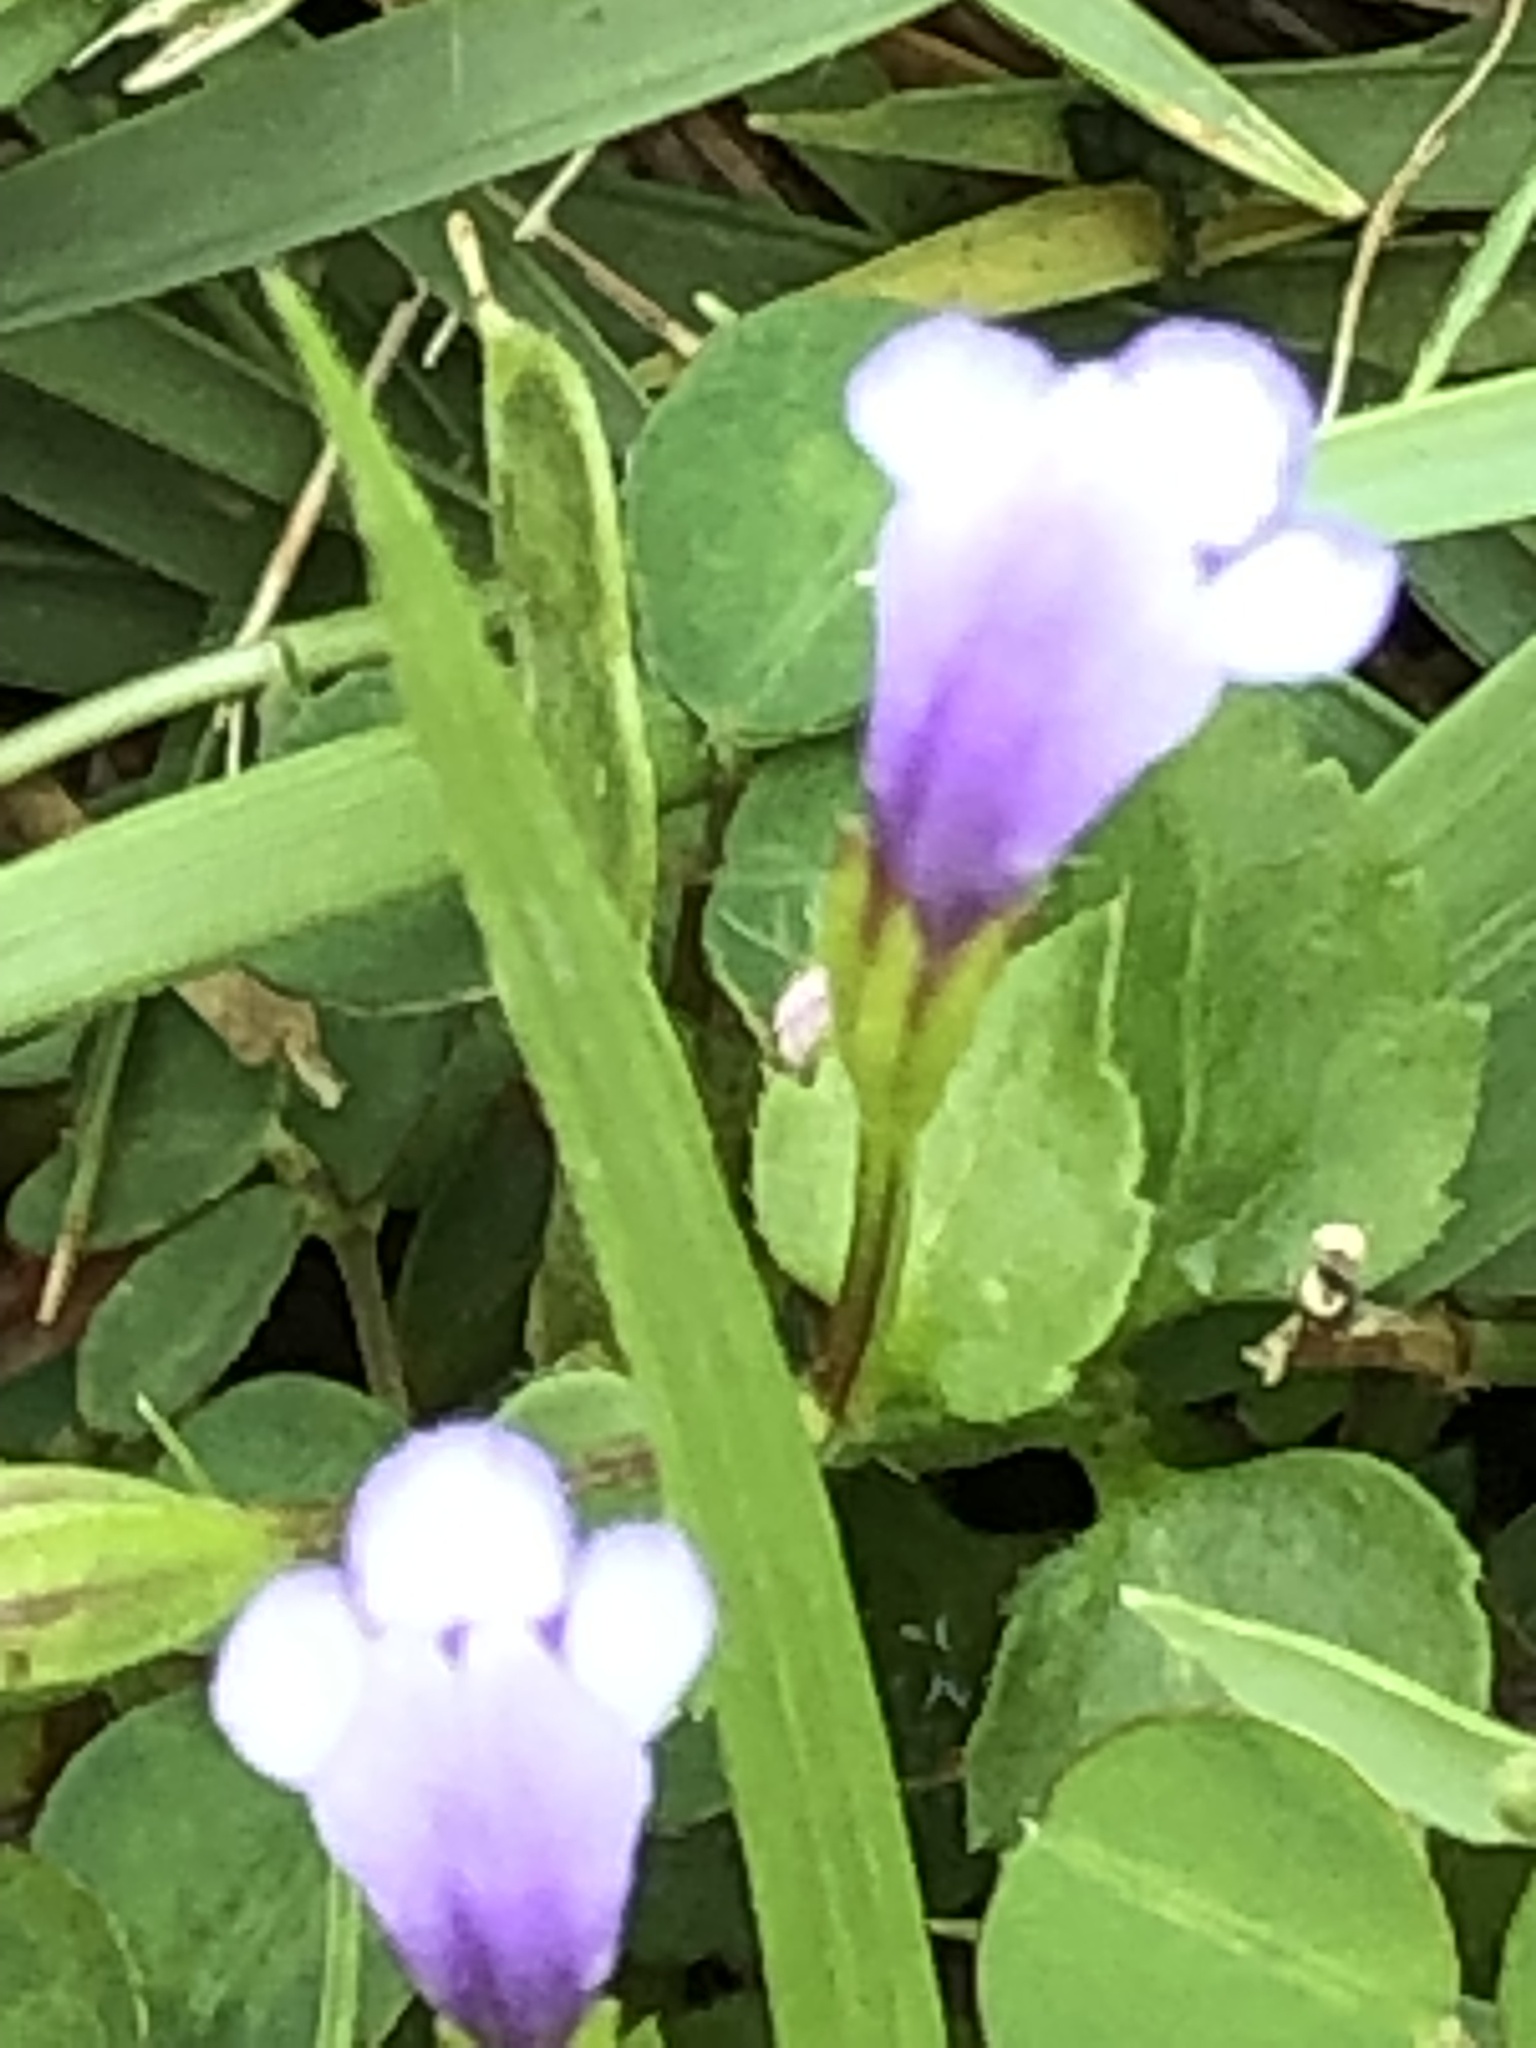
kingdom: Plantae
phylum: Tracheophyta
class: Magnoliopsida
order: Lamiales
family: Linderniaceae
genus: Torenia
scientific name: Torenia crustacea
